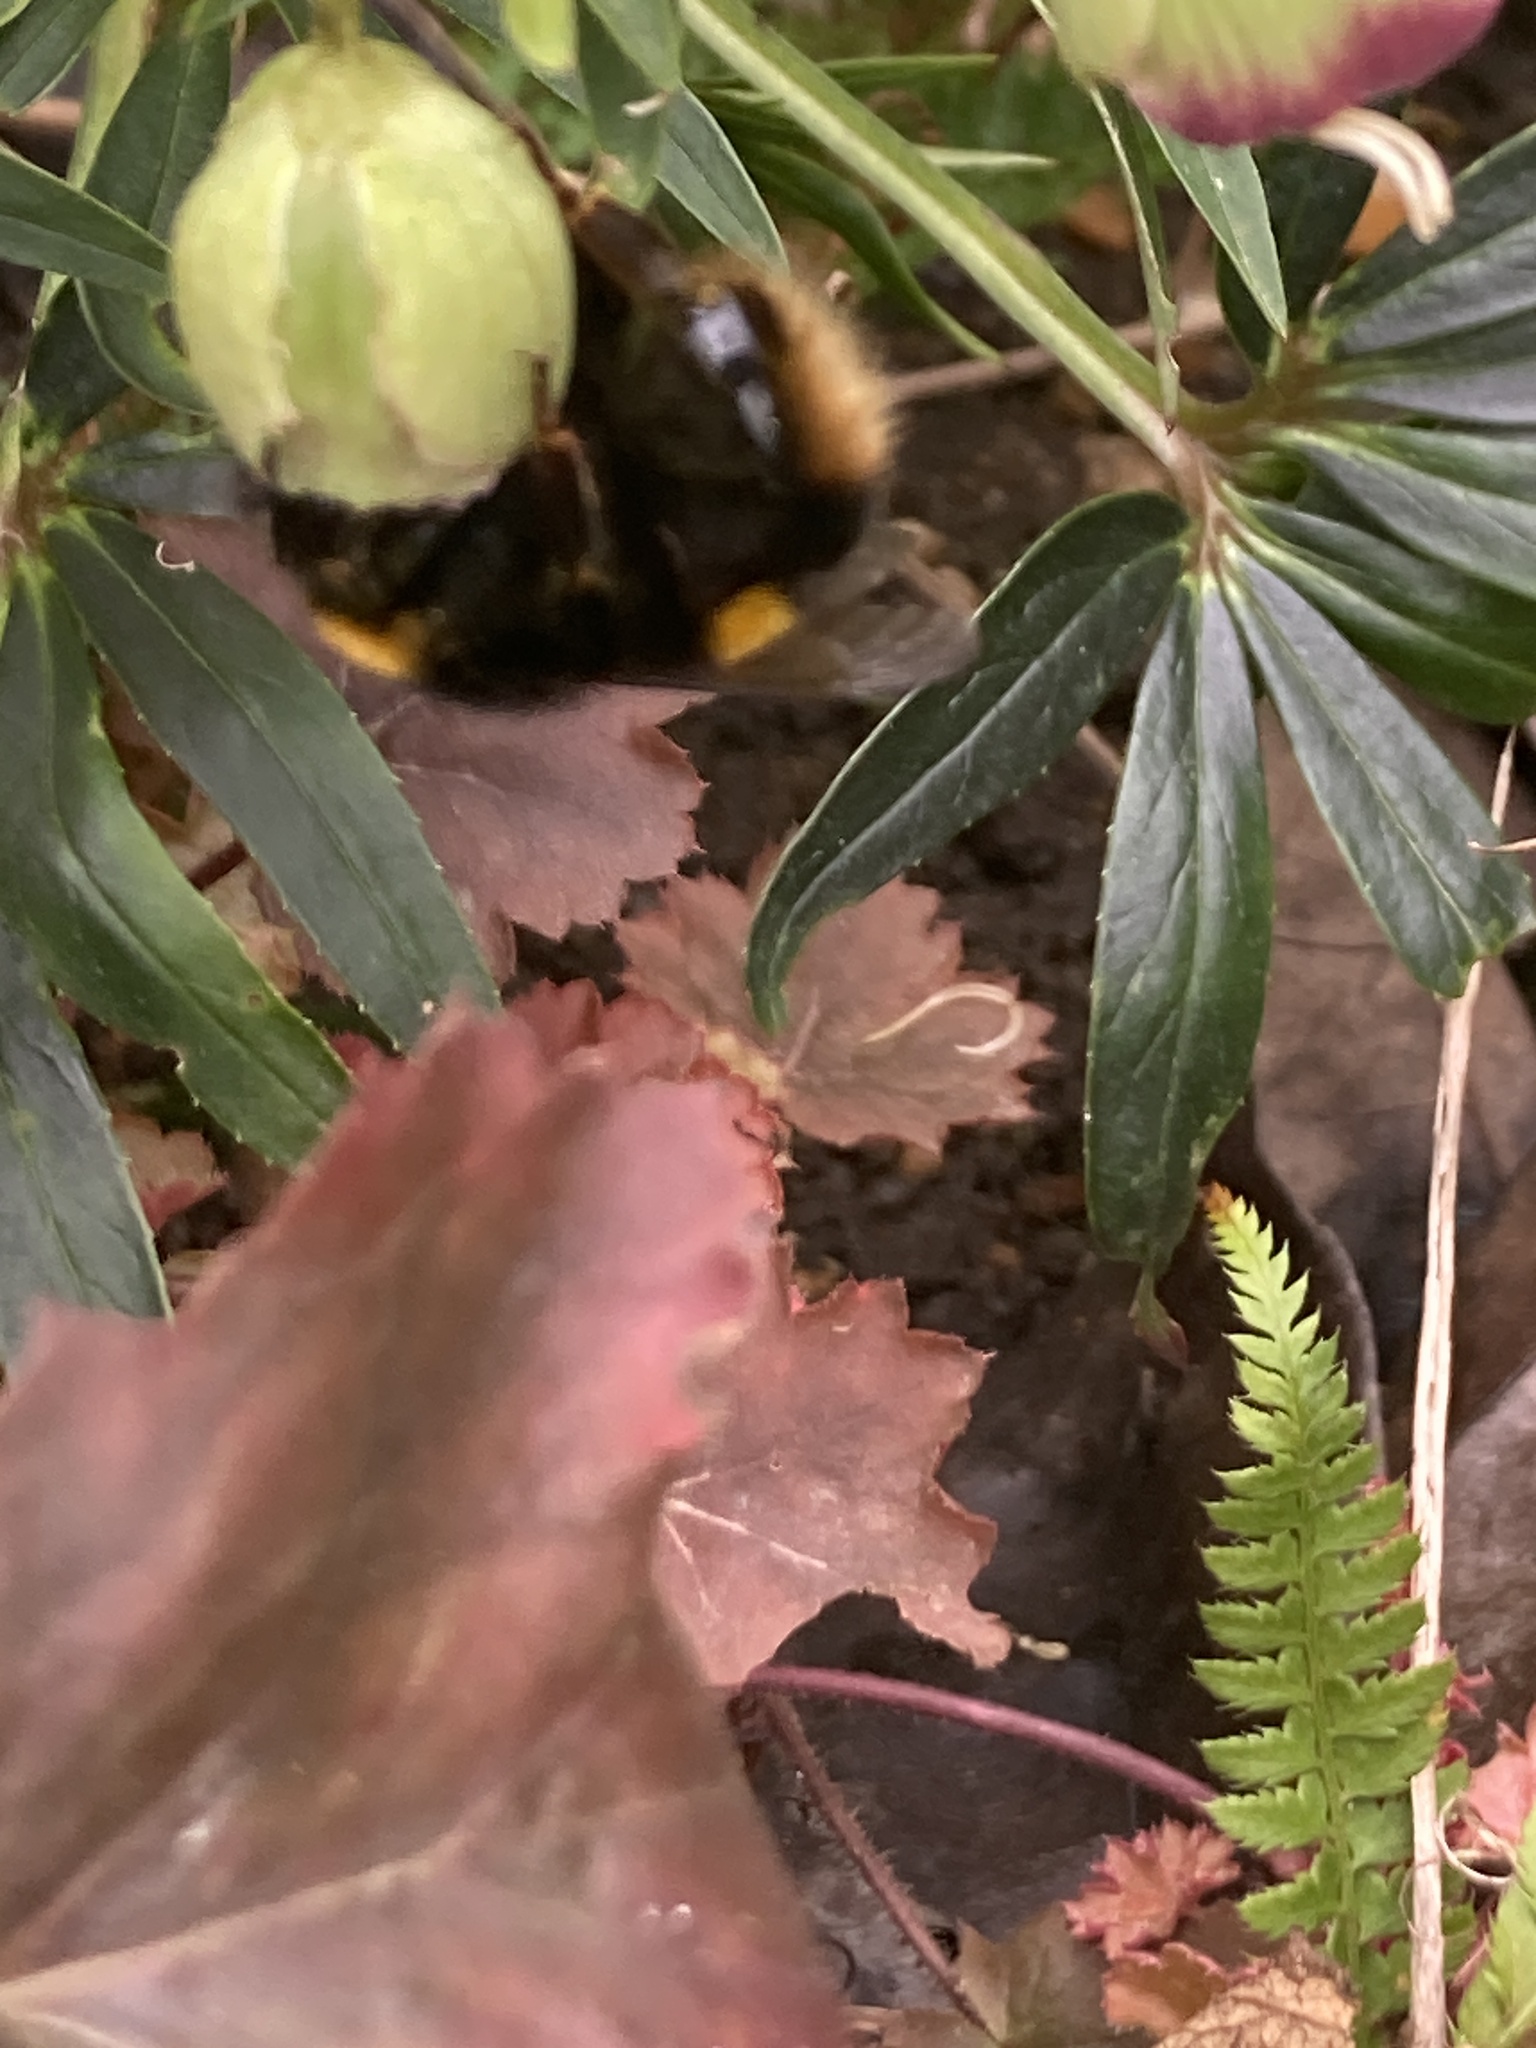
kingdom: Animalia
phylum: Arthropoda
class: Insecta
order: Hymenoptera
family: Apidae
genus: Bombus
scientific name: Bombus terrestris
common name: Buff-tailed bumblebee
